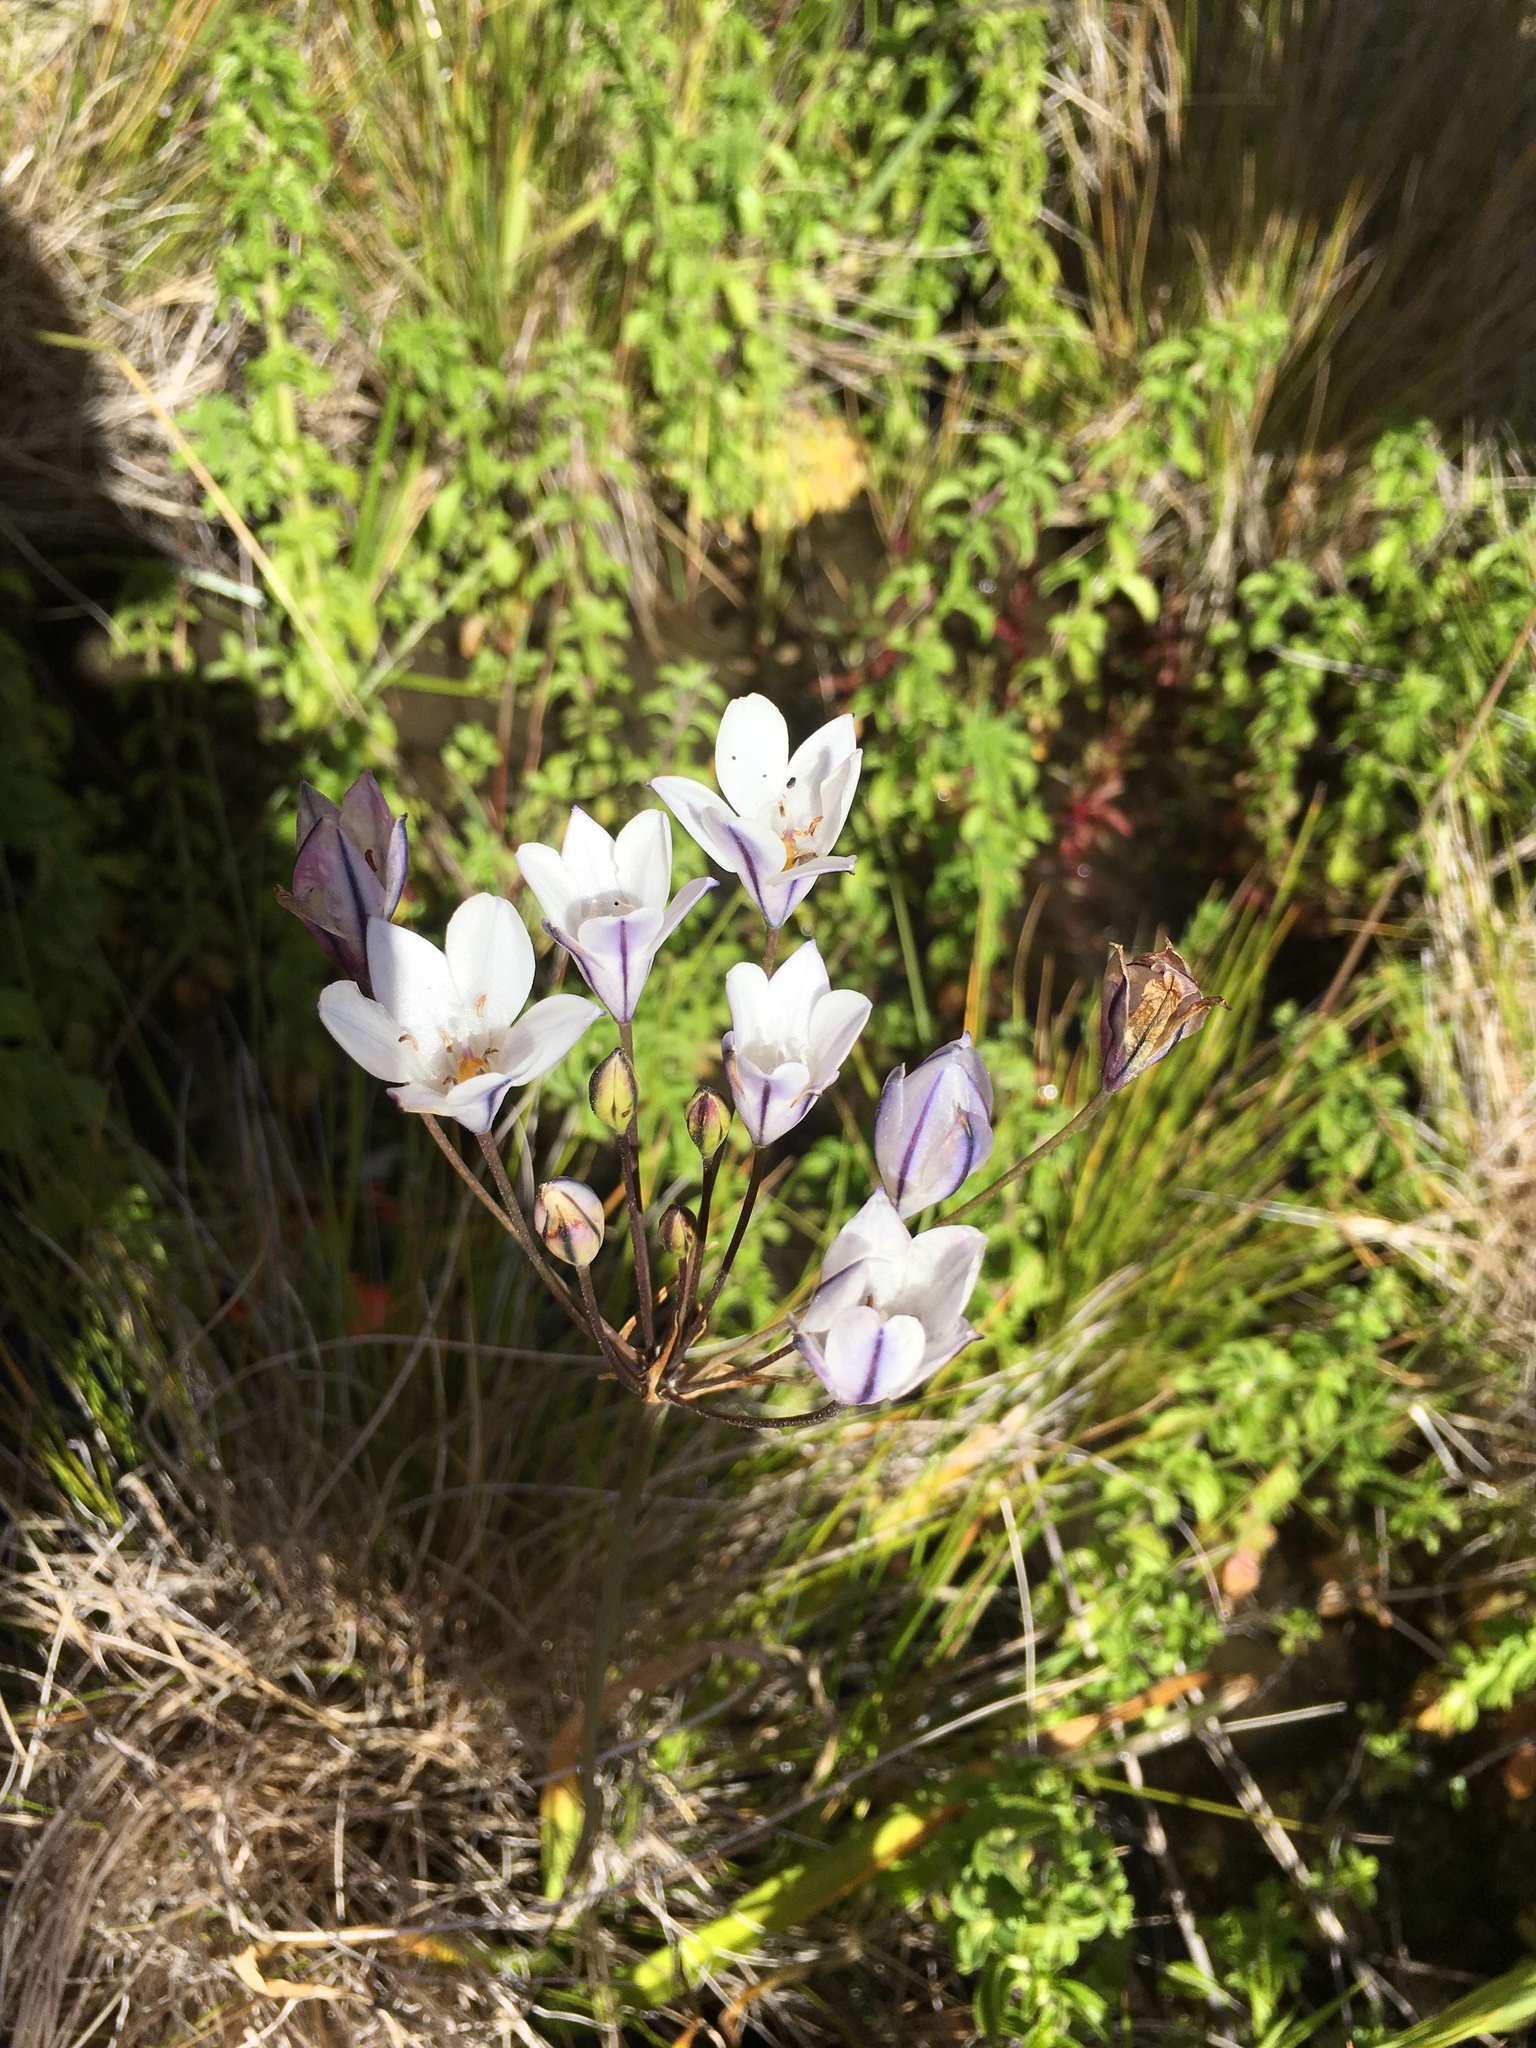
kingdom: Plantae
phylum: Tracheophyta
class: Liliopsida
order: Asparagales
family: Asparagaceae
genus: Triteleia
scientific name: Triteleia peduncularis
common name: Long-ray brodiaea
